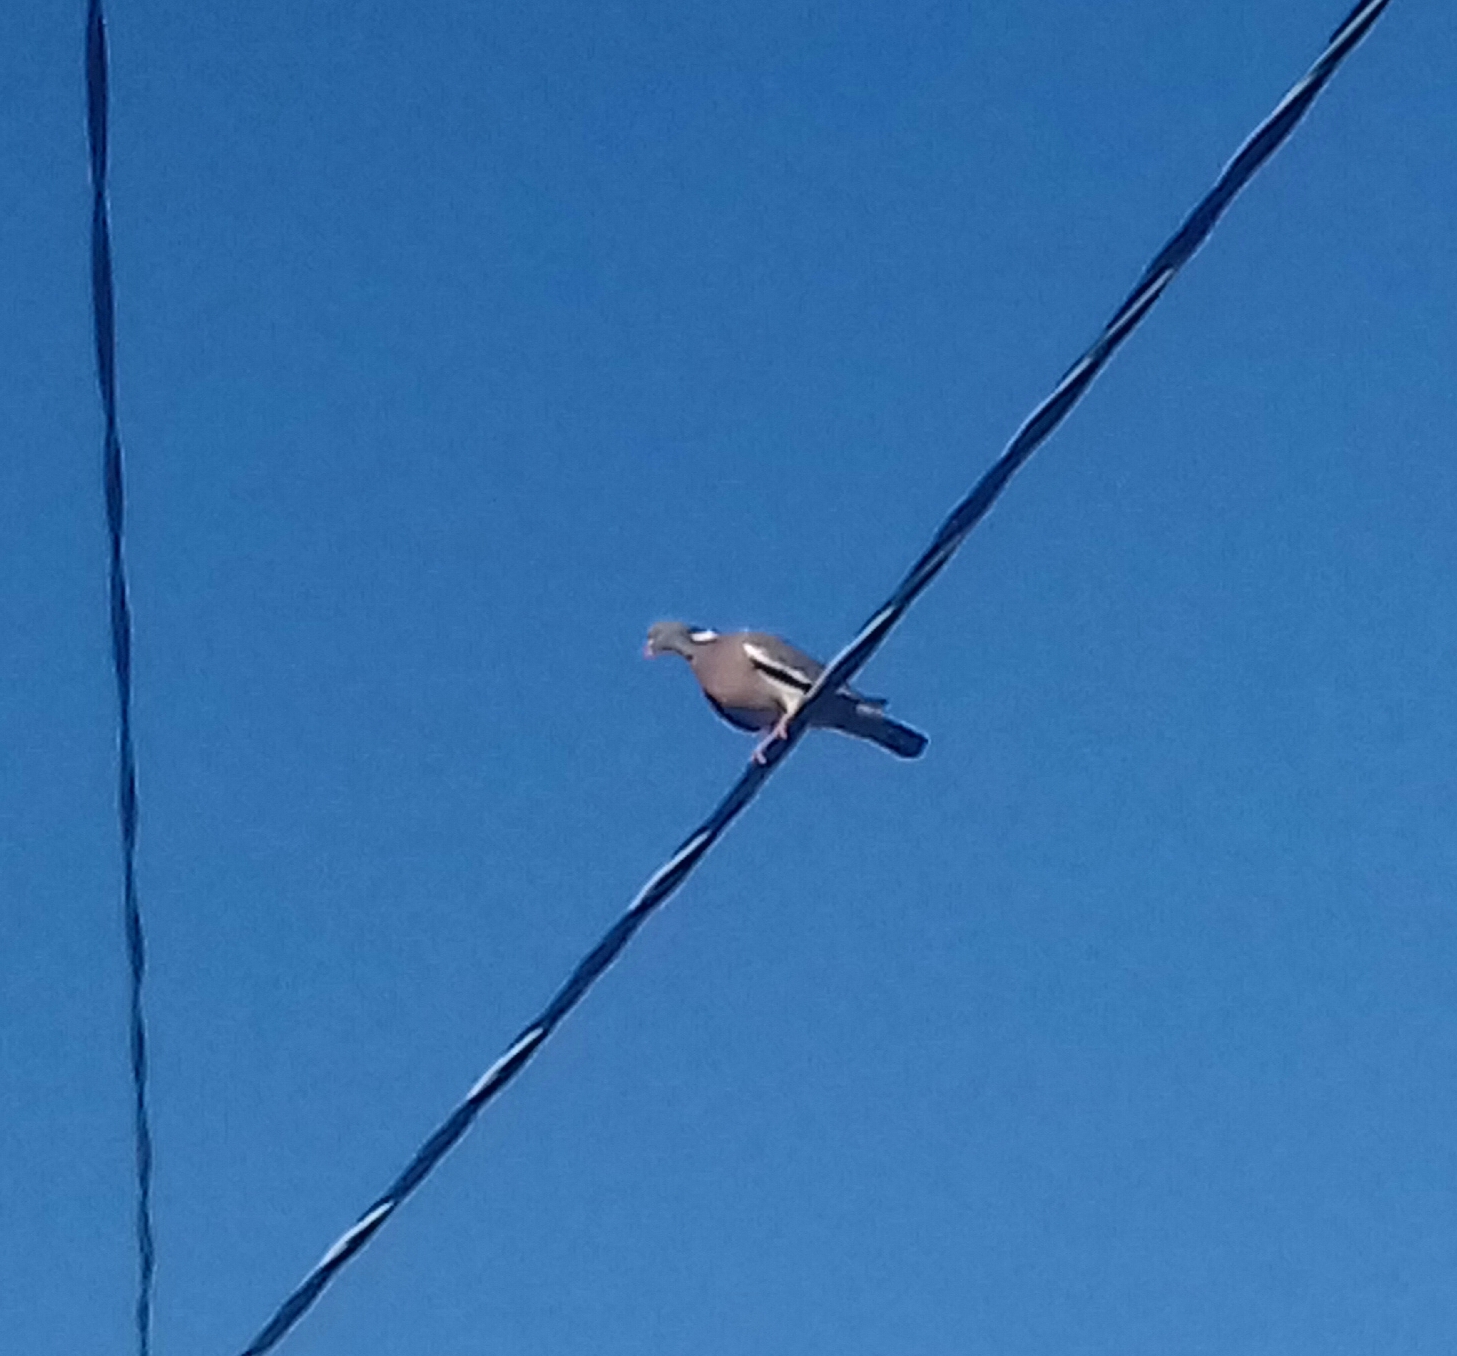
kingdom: Animalia
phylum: Chordata
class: Aves
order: Columbiformes
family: Columbidae
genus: Columba
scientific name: Columba palumbus
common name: Common wood pigeon
